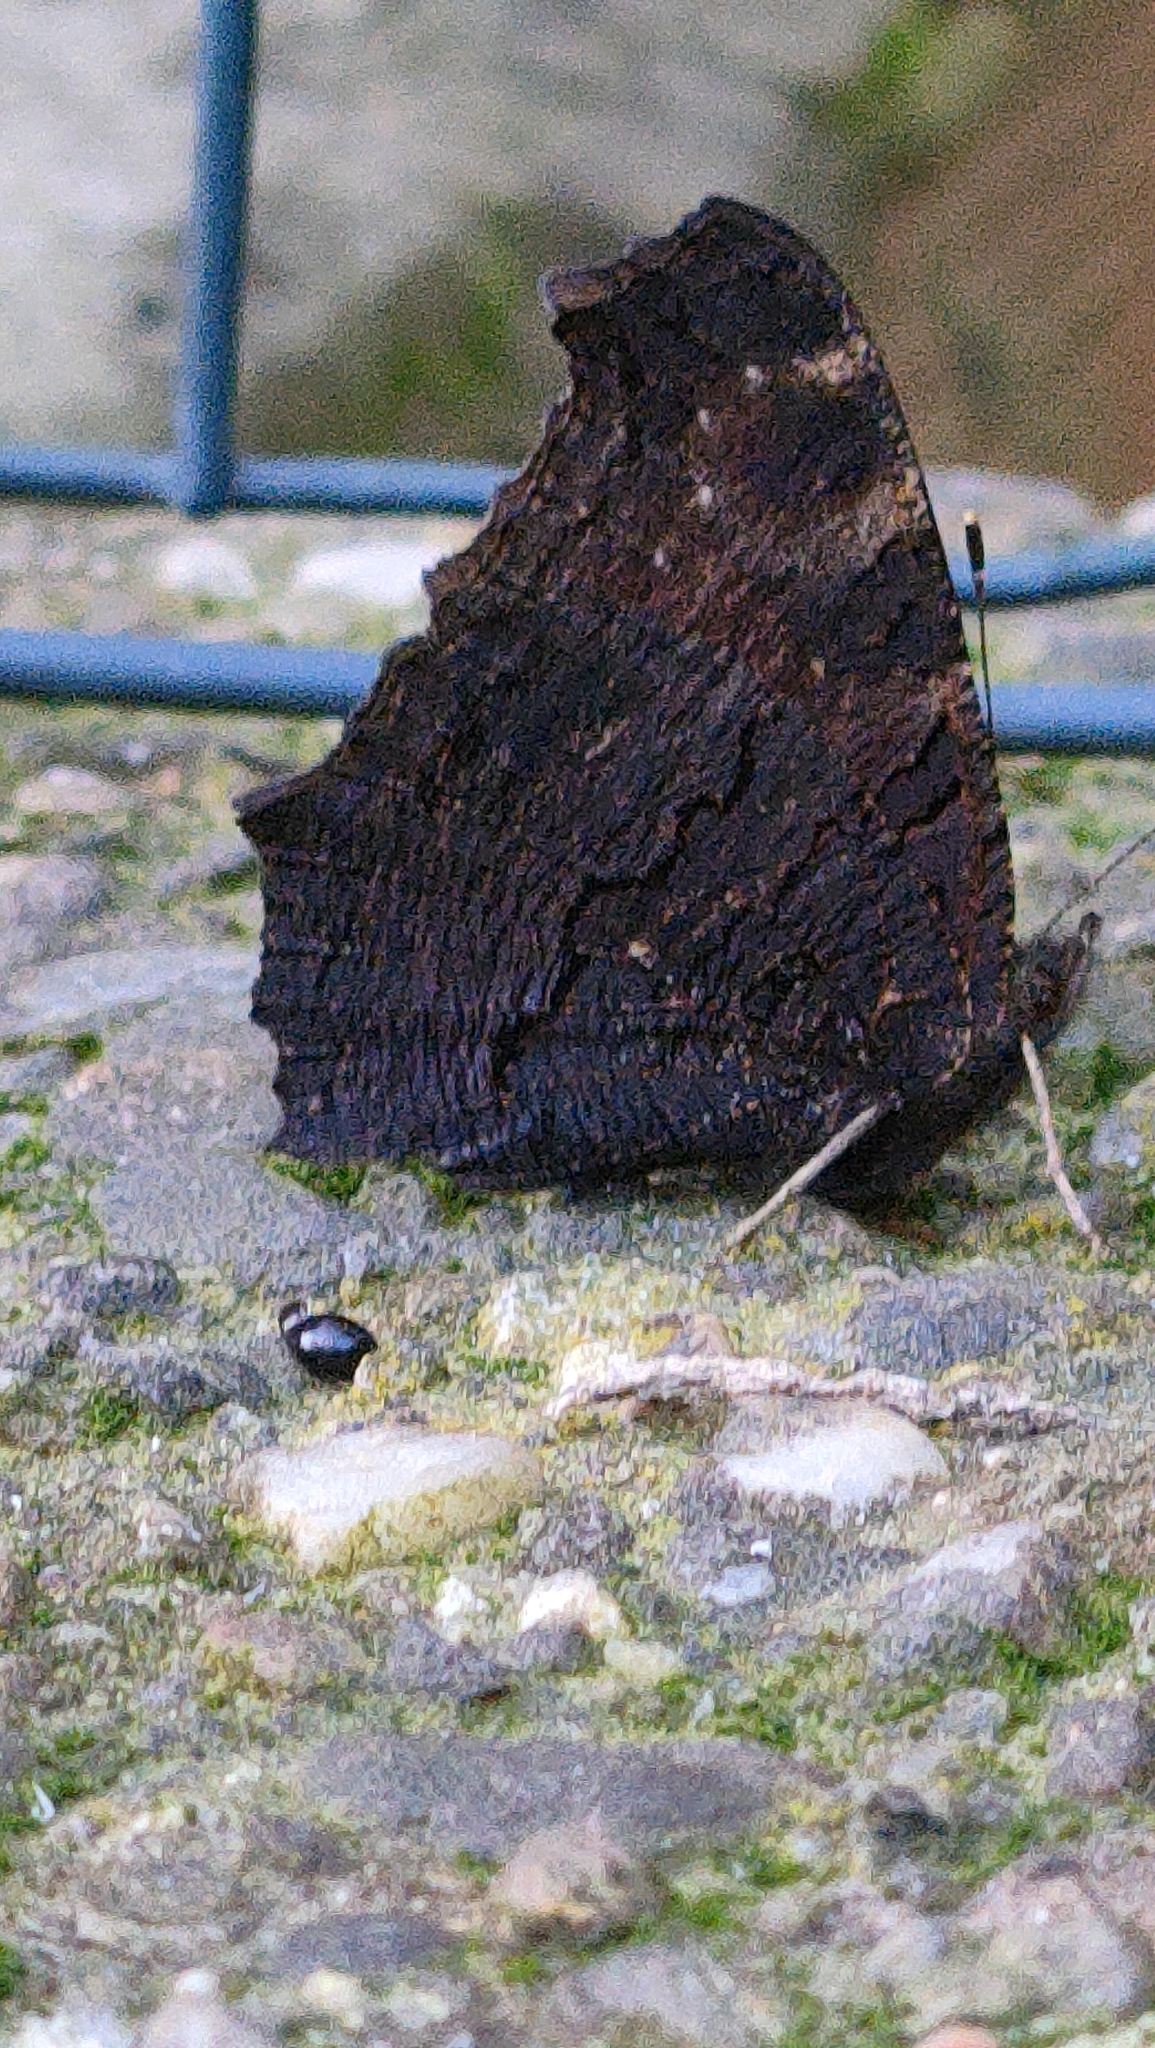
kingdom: Animalia
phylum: Arthropoda
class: Insecta
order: Lepidoptera
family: Nymphalidae
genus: Aglais
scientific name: Aglais io
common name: Peacock
